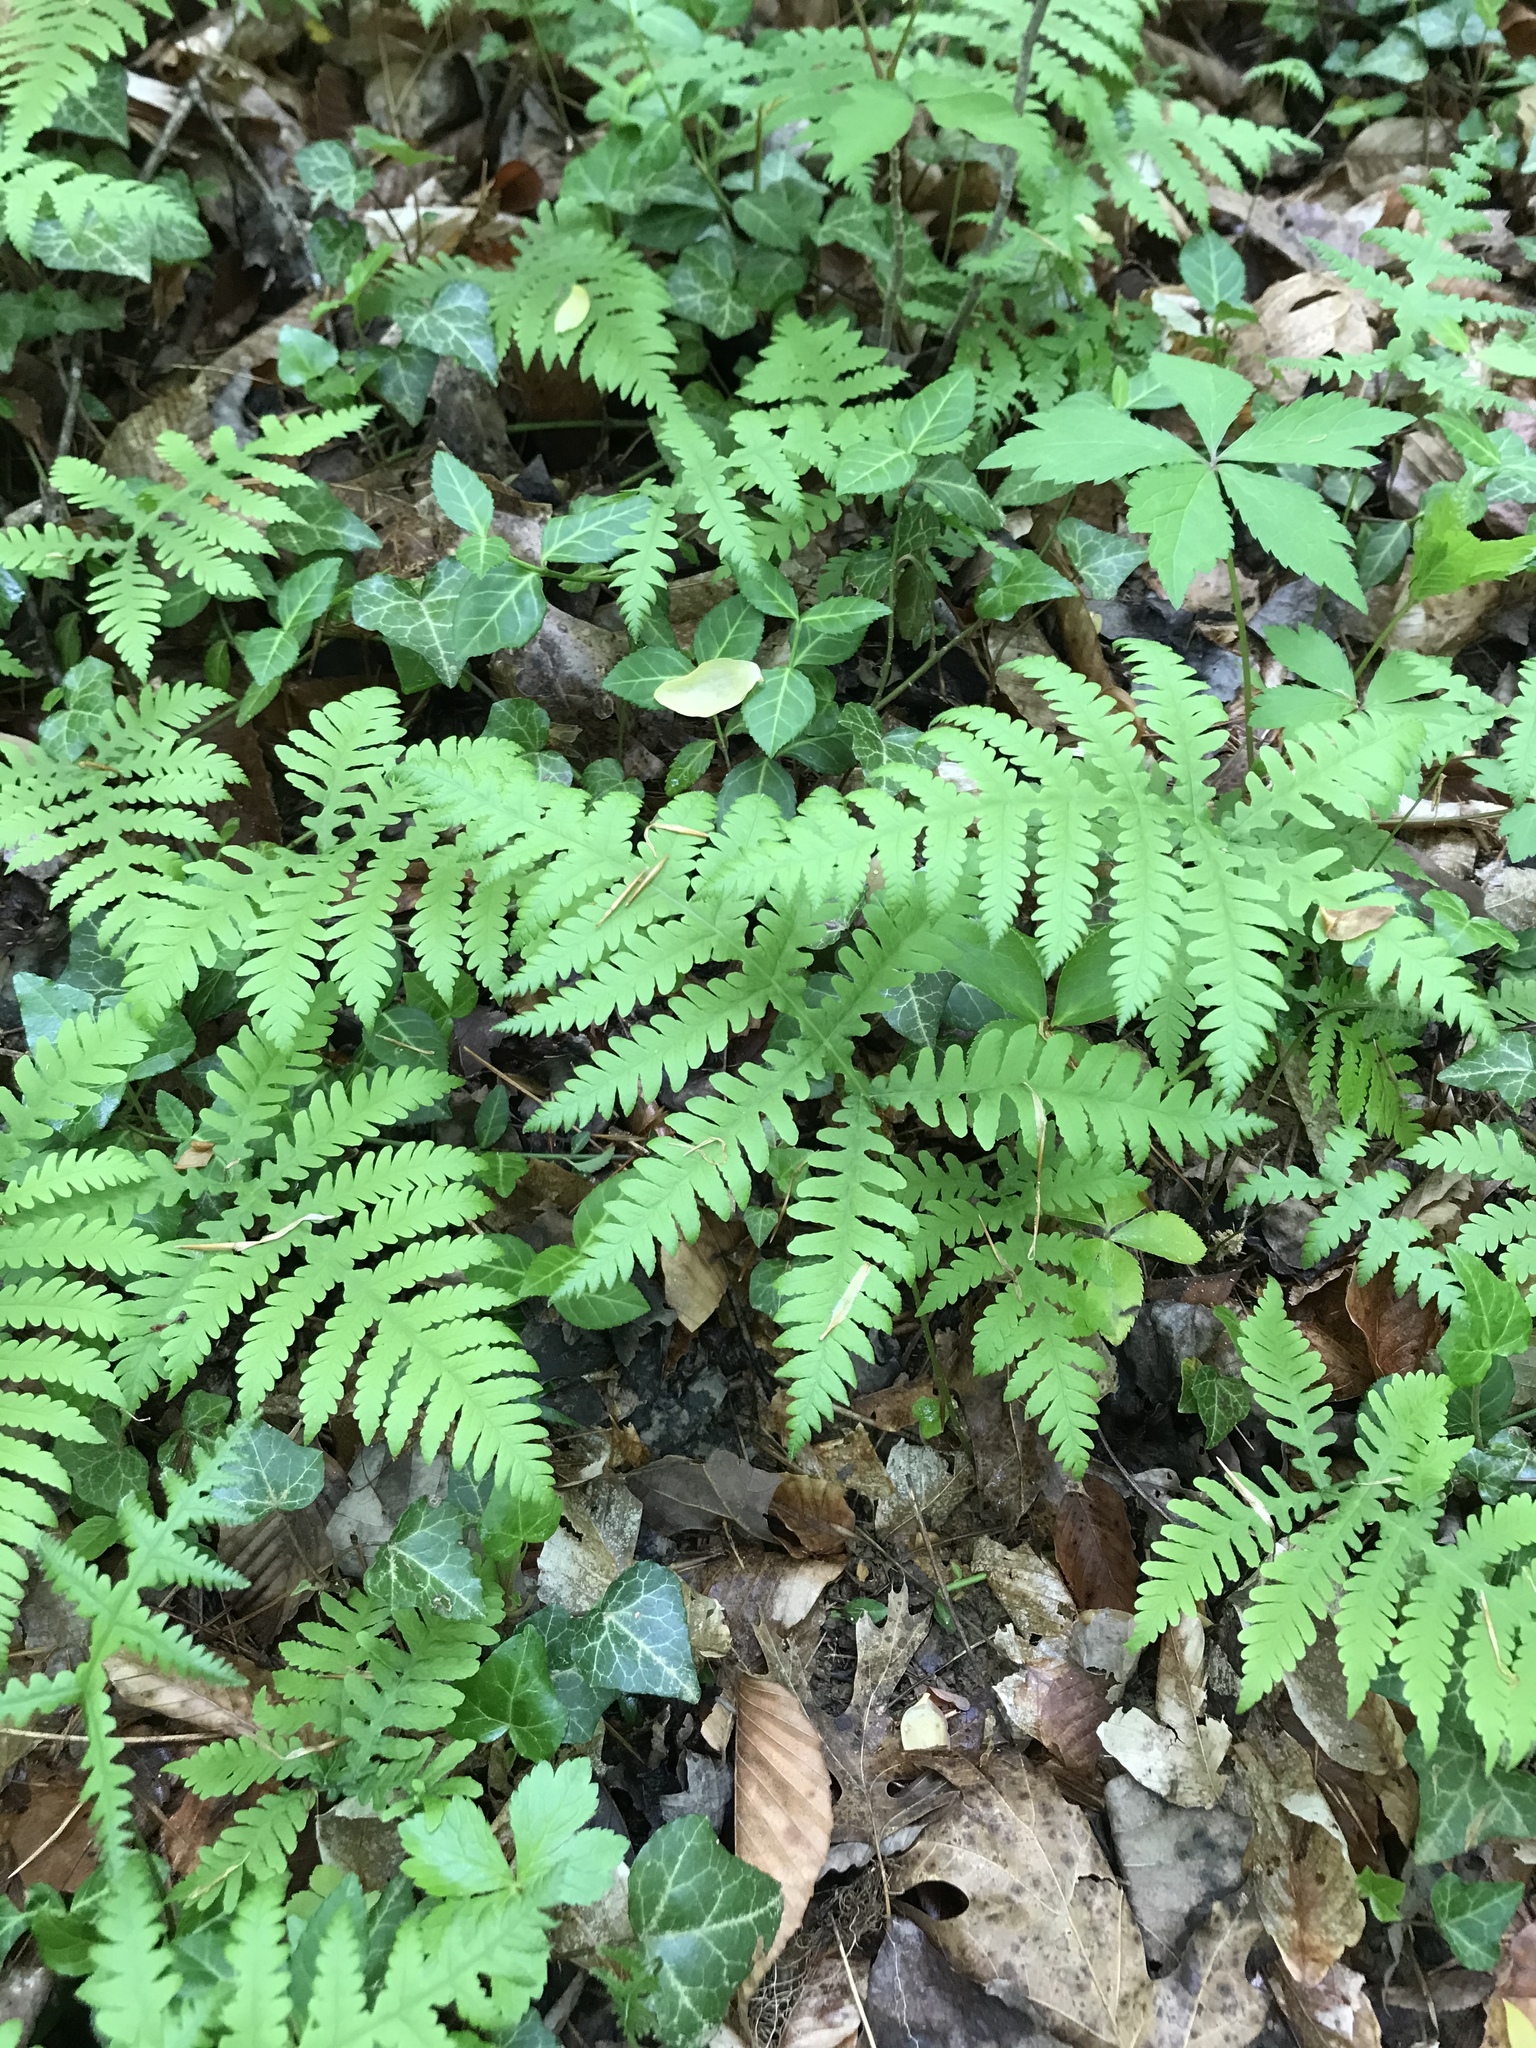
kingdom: Plantae
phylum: Tracheophyta
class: Polypodiopsida
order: Polypodiales
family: Thelypteridaceae
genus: Phegopteris
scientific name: Phegopteris hexagonoptera
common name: Broad beech fern
